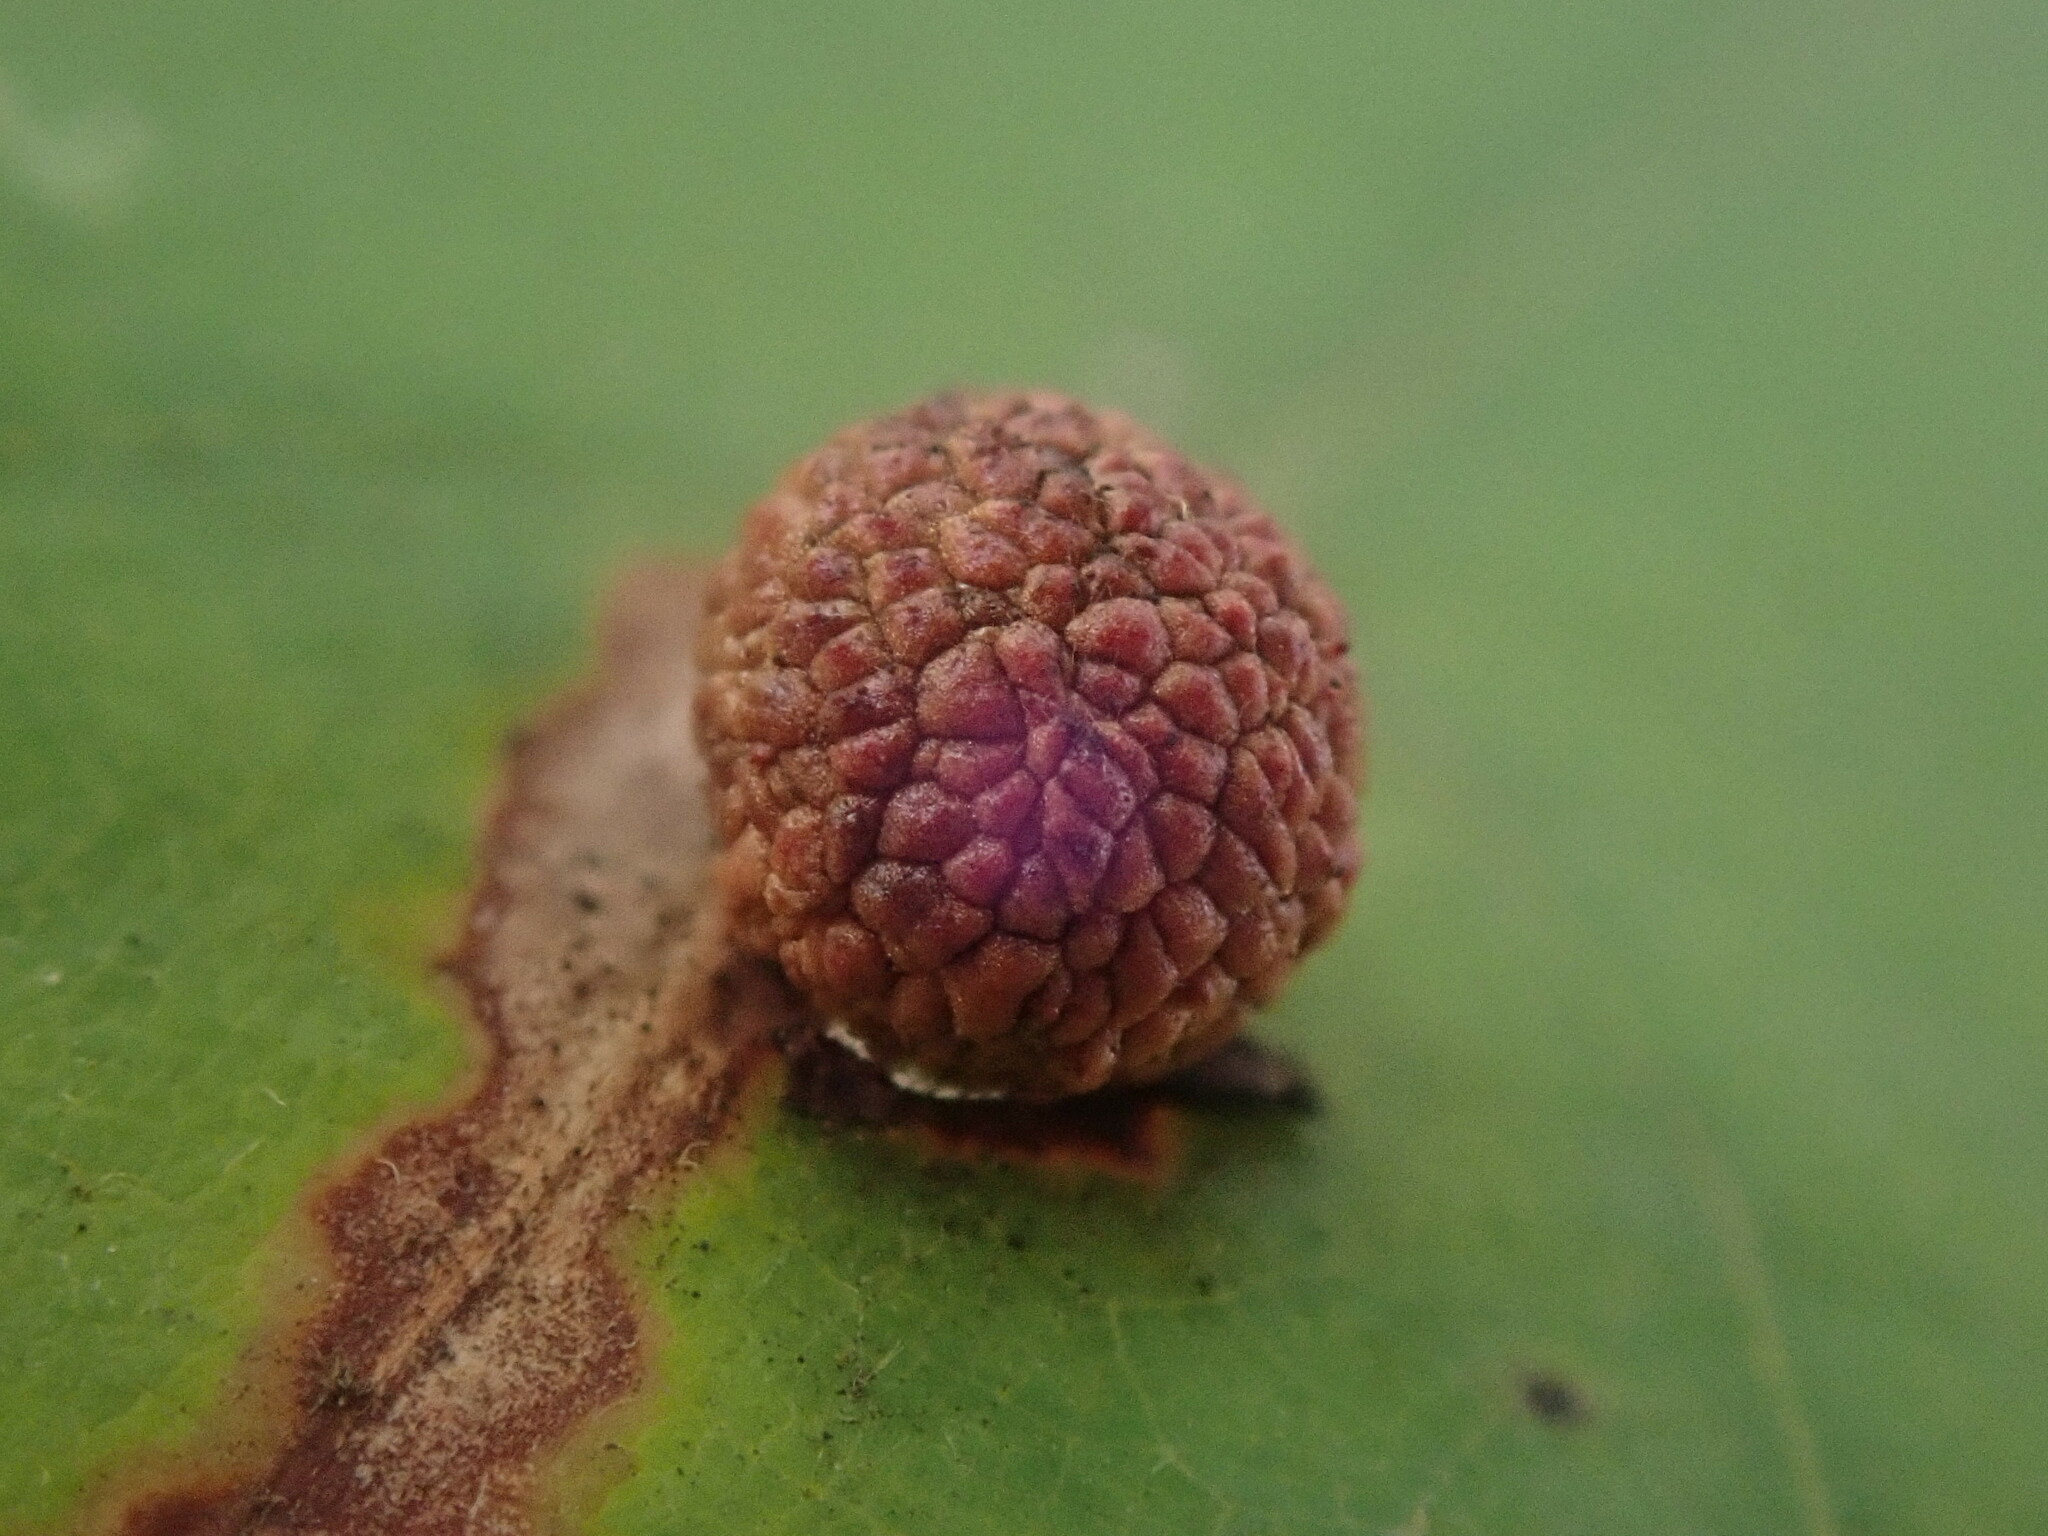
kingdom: Animalia
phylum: Arthropoda
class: Insecta
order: Hymenoptera
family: Cynipidae
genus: Acraspis
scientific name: Acraspis quercushirta
